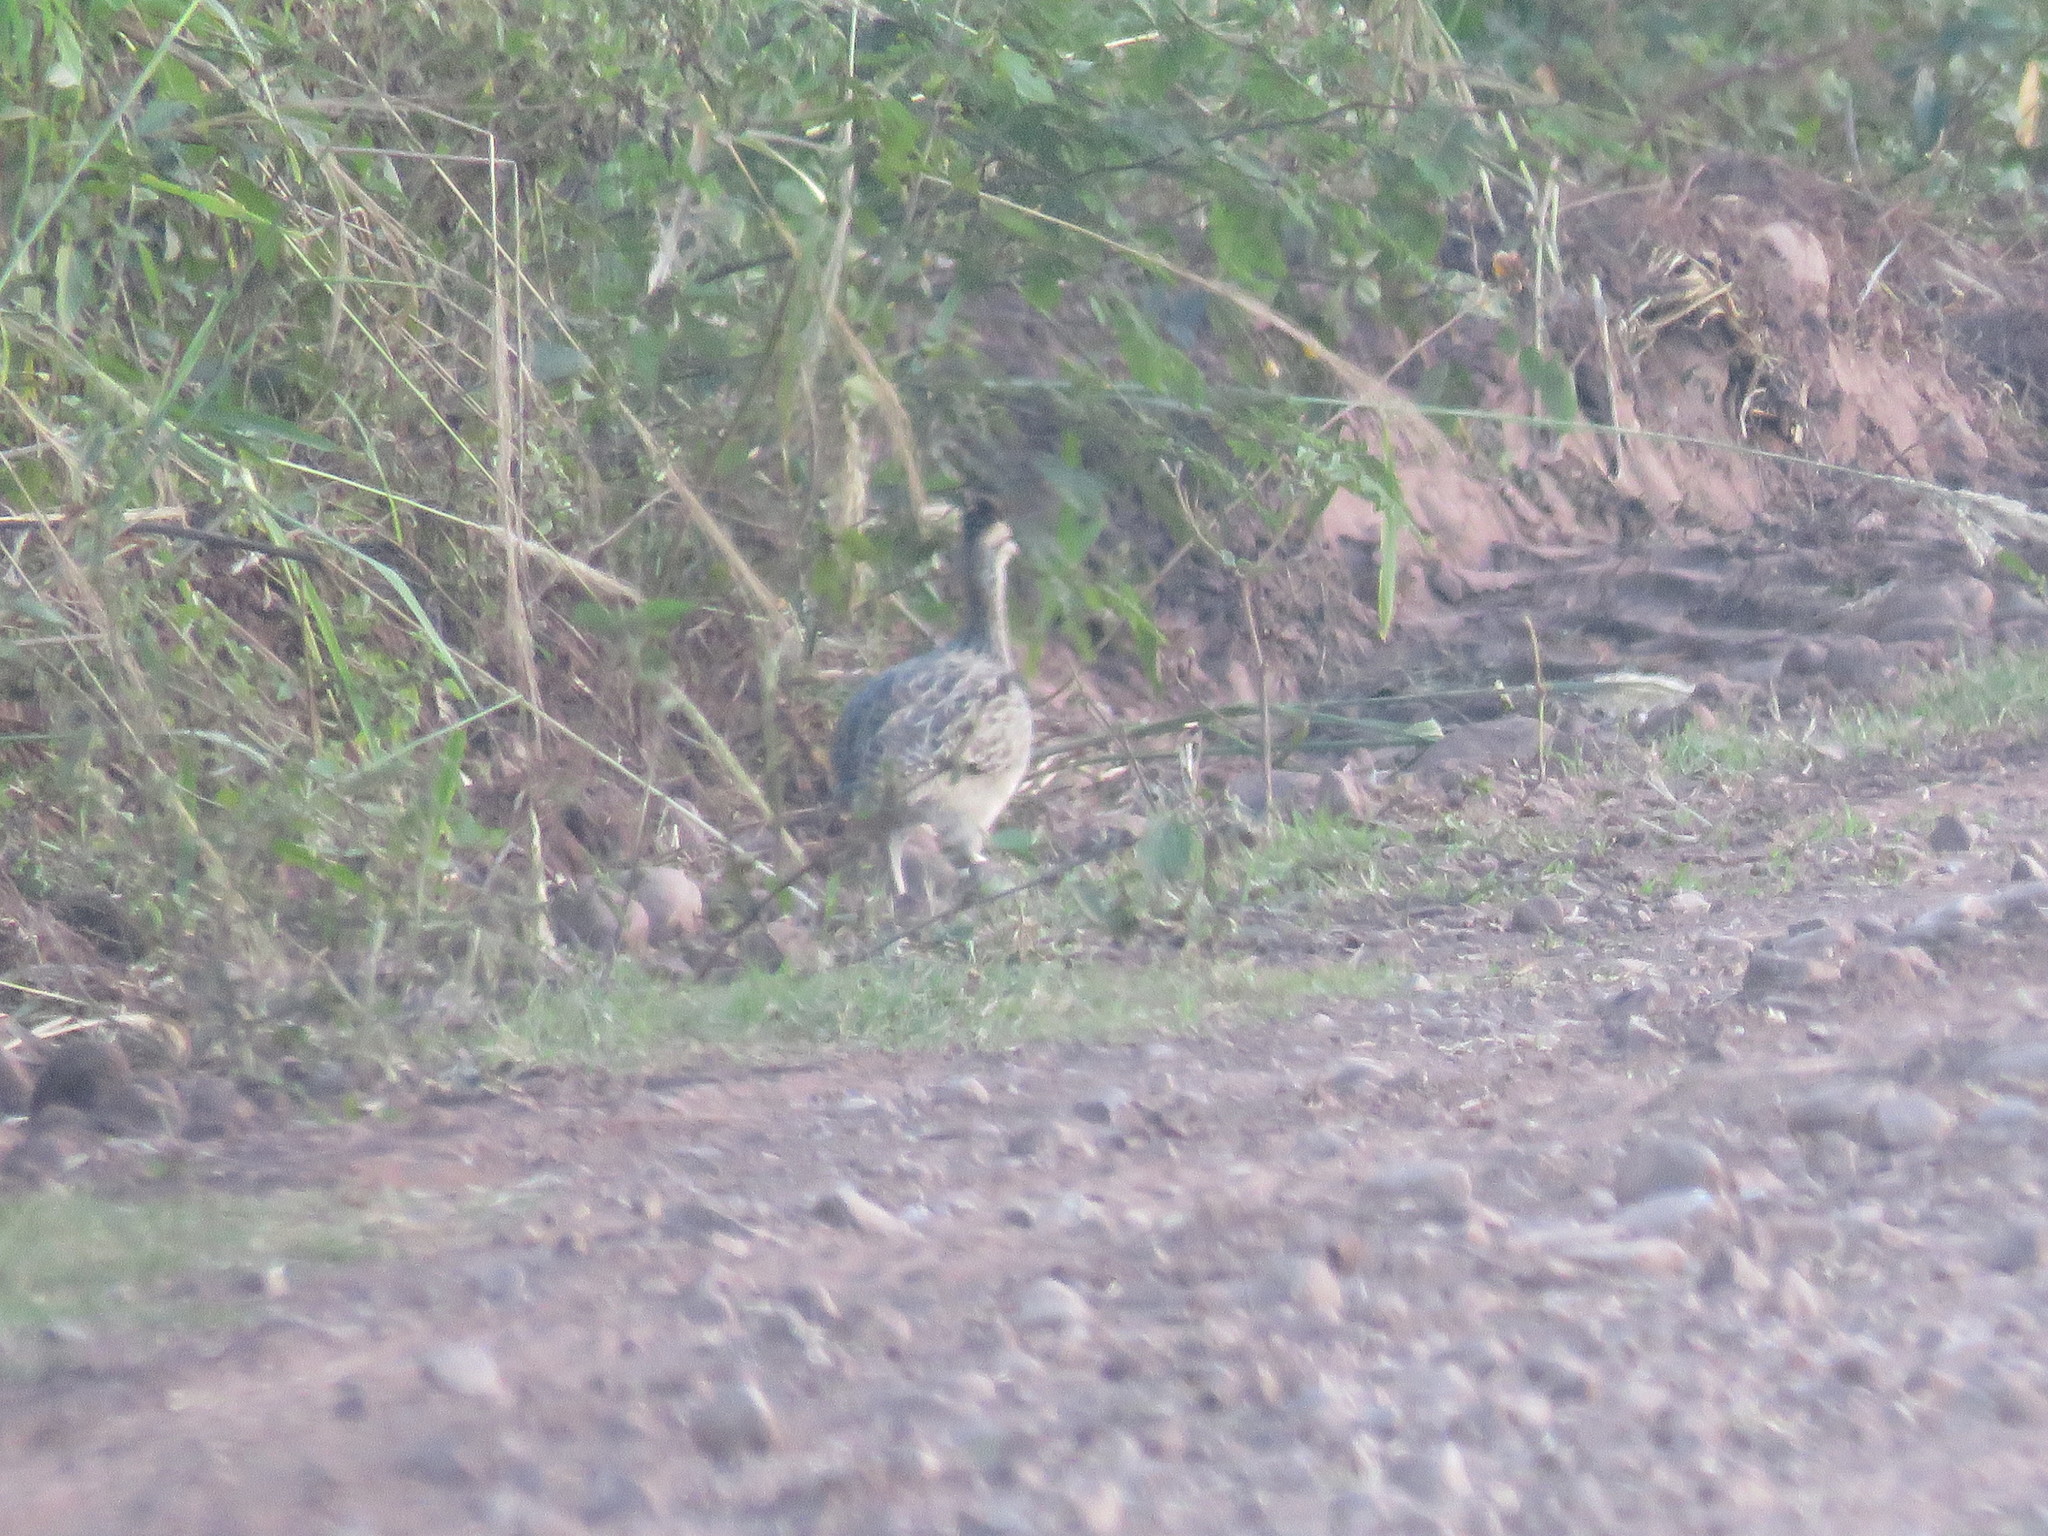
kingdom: Animalia
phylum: Chordata
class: Aves
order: Tinamiformes
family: Tinamidae
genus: Nothoprocta
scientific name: Nothoprocta cinerascens
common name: Brushland tinamou
